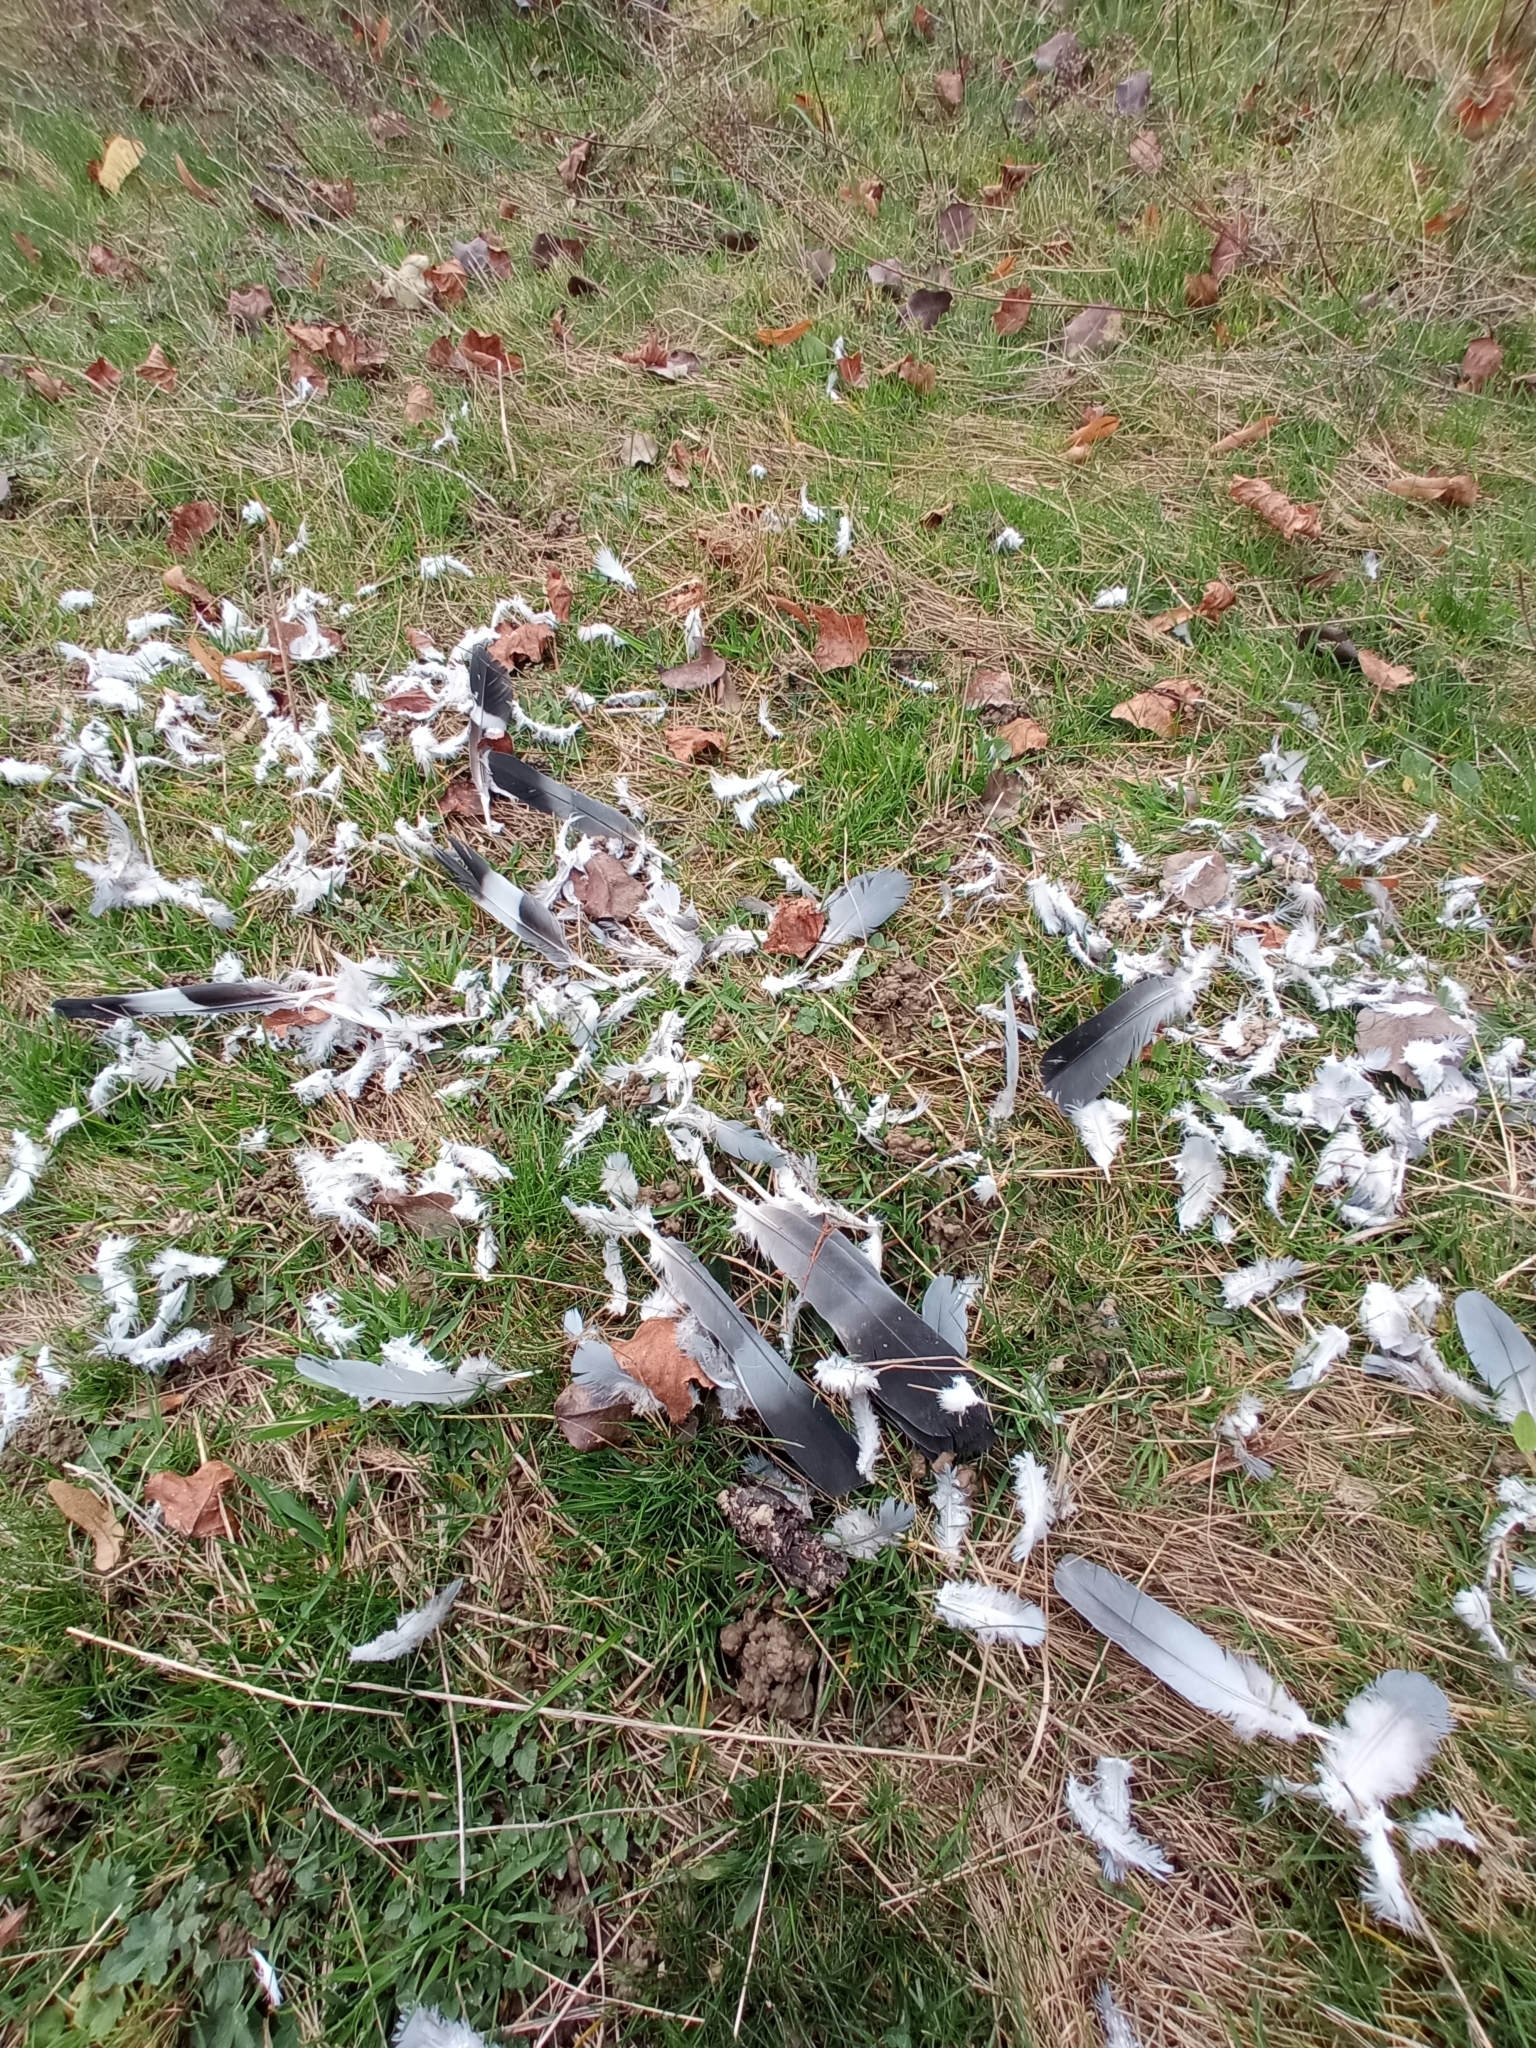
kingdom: Animalia
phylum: Chordata
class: Aves
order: Columbiformes
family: Columbidae
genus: Columba
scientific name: Columba palumbus
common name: Common wood pigeon
